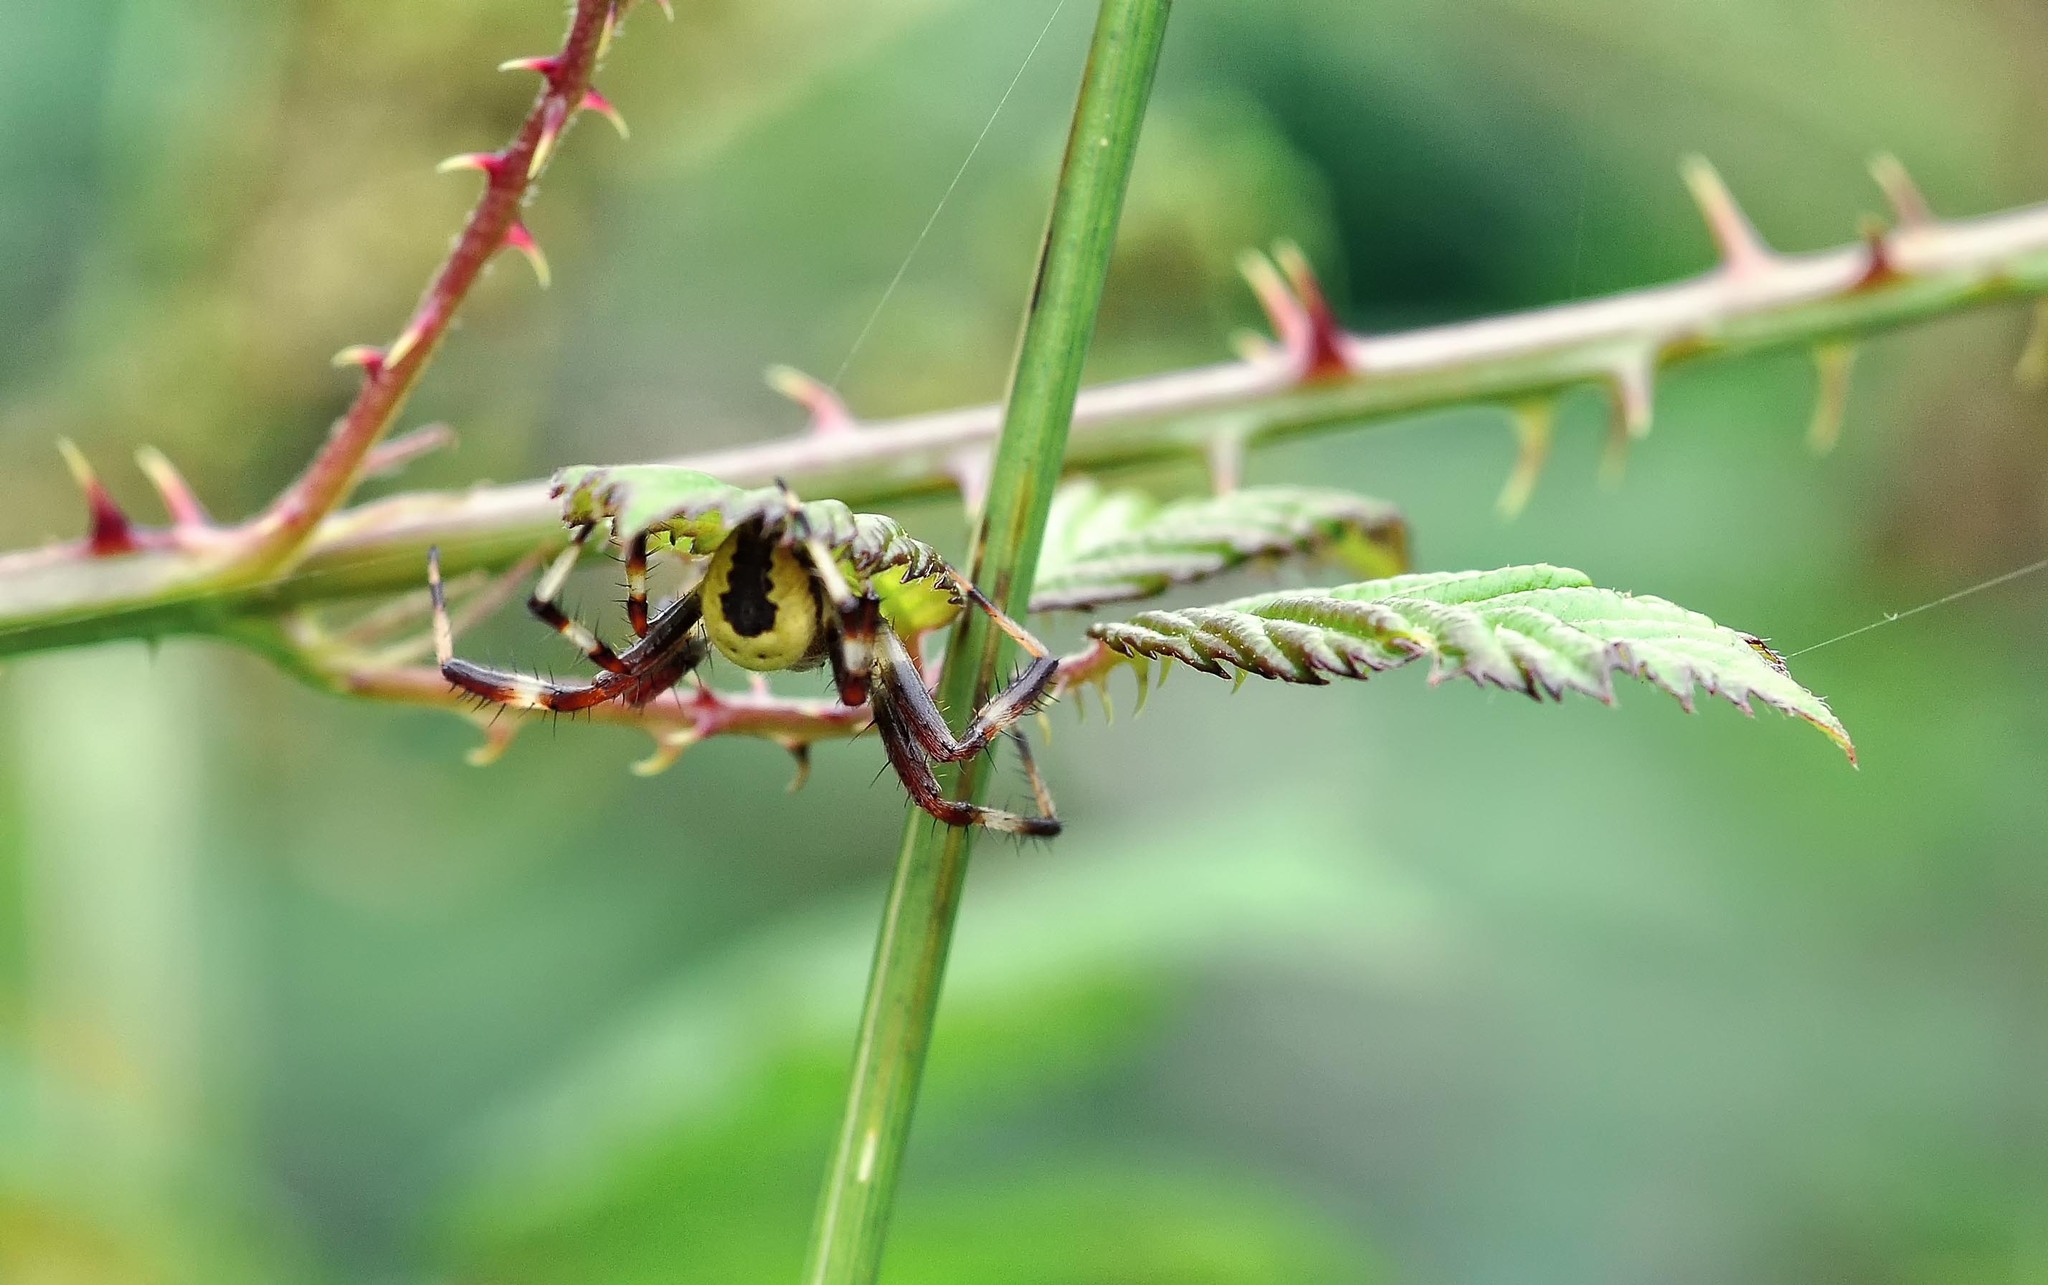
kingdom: Animalia
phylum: Arthropoda
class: Arachnida
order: Araneae
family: Araneidae
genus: Araneus
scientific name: Araneus marmoreus
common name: Marbled orbweaver
